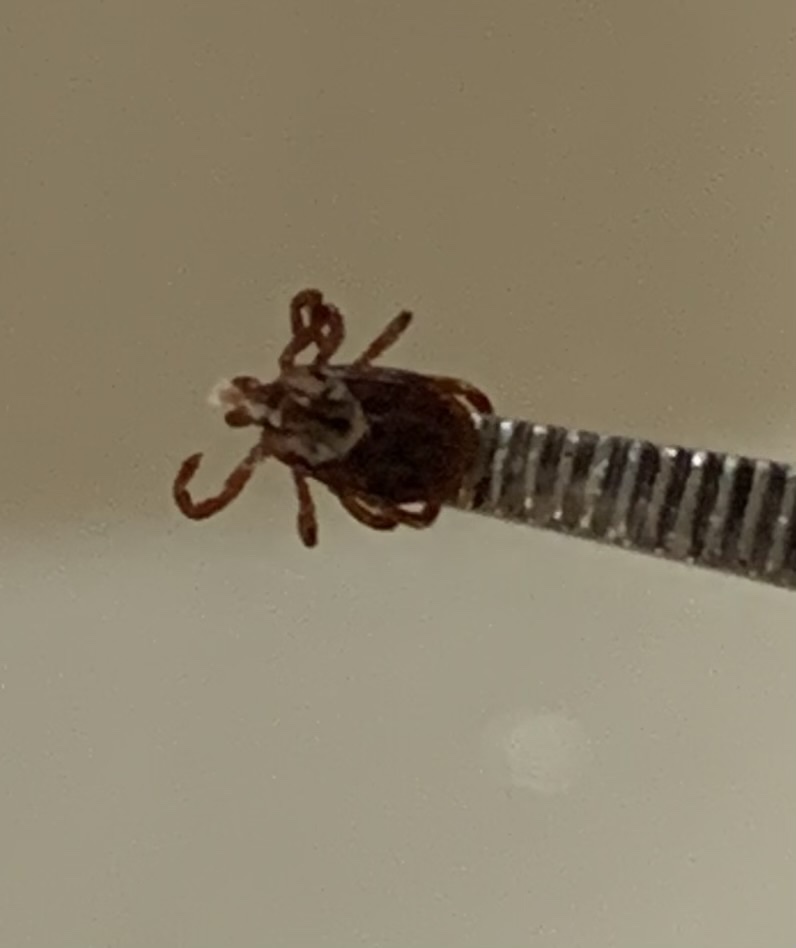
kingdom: Animalia
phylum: Arthropoda
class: Arachnida
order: Ixodida
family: Ixodidae
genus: Dermacentor
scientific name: Dermacentor variabilis
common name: American dog tick
